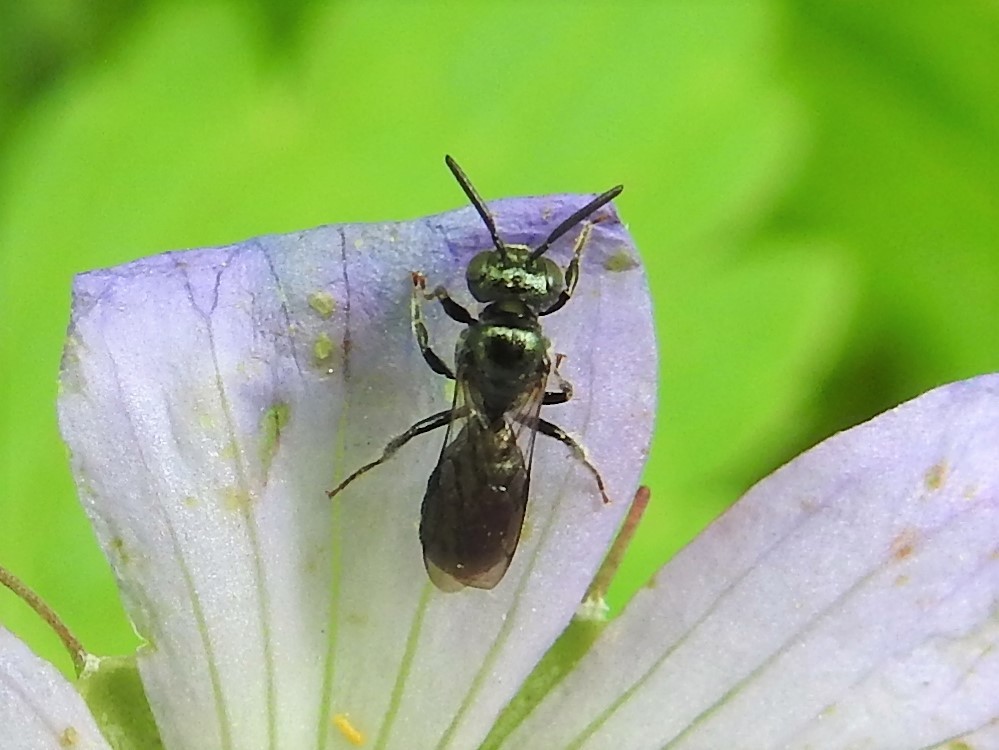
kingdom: Animalia
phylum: Arthropoda
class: Insecta
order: Hymenoptera
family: Apidae
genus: Ceratina
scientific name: Ceratina
